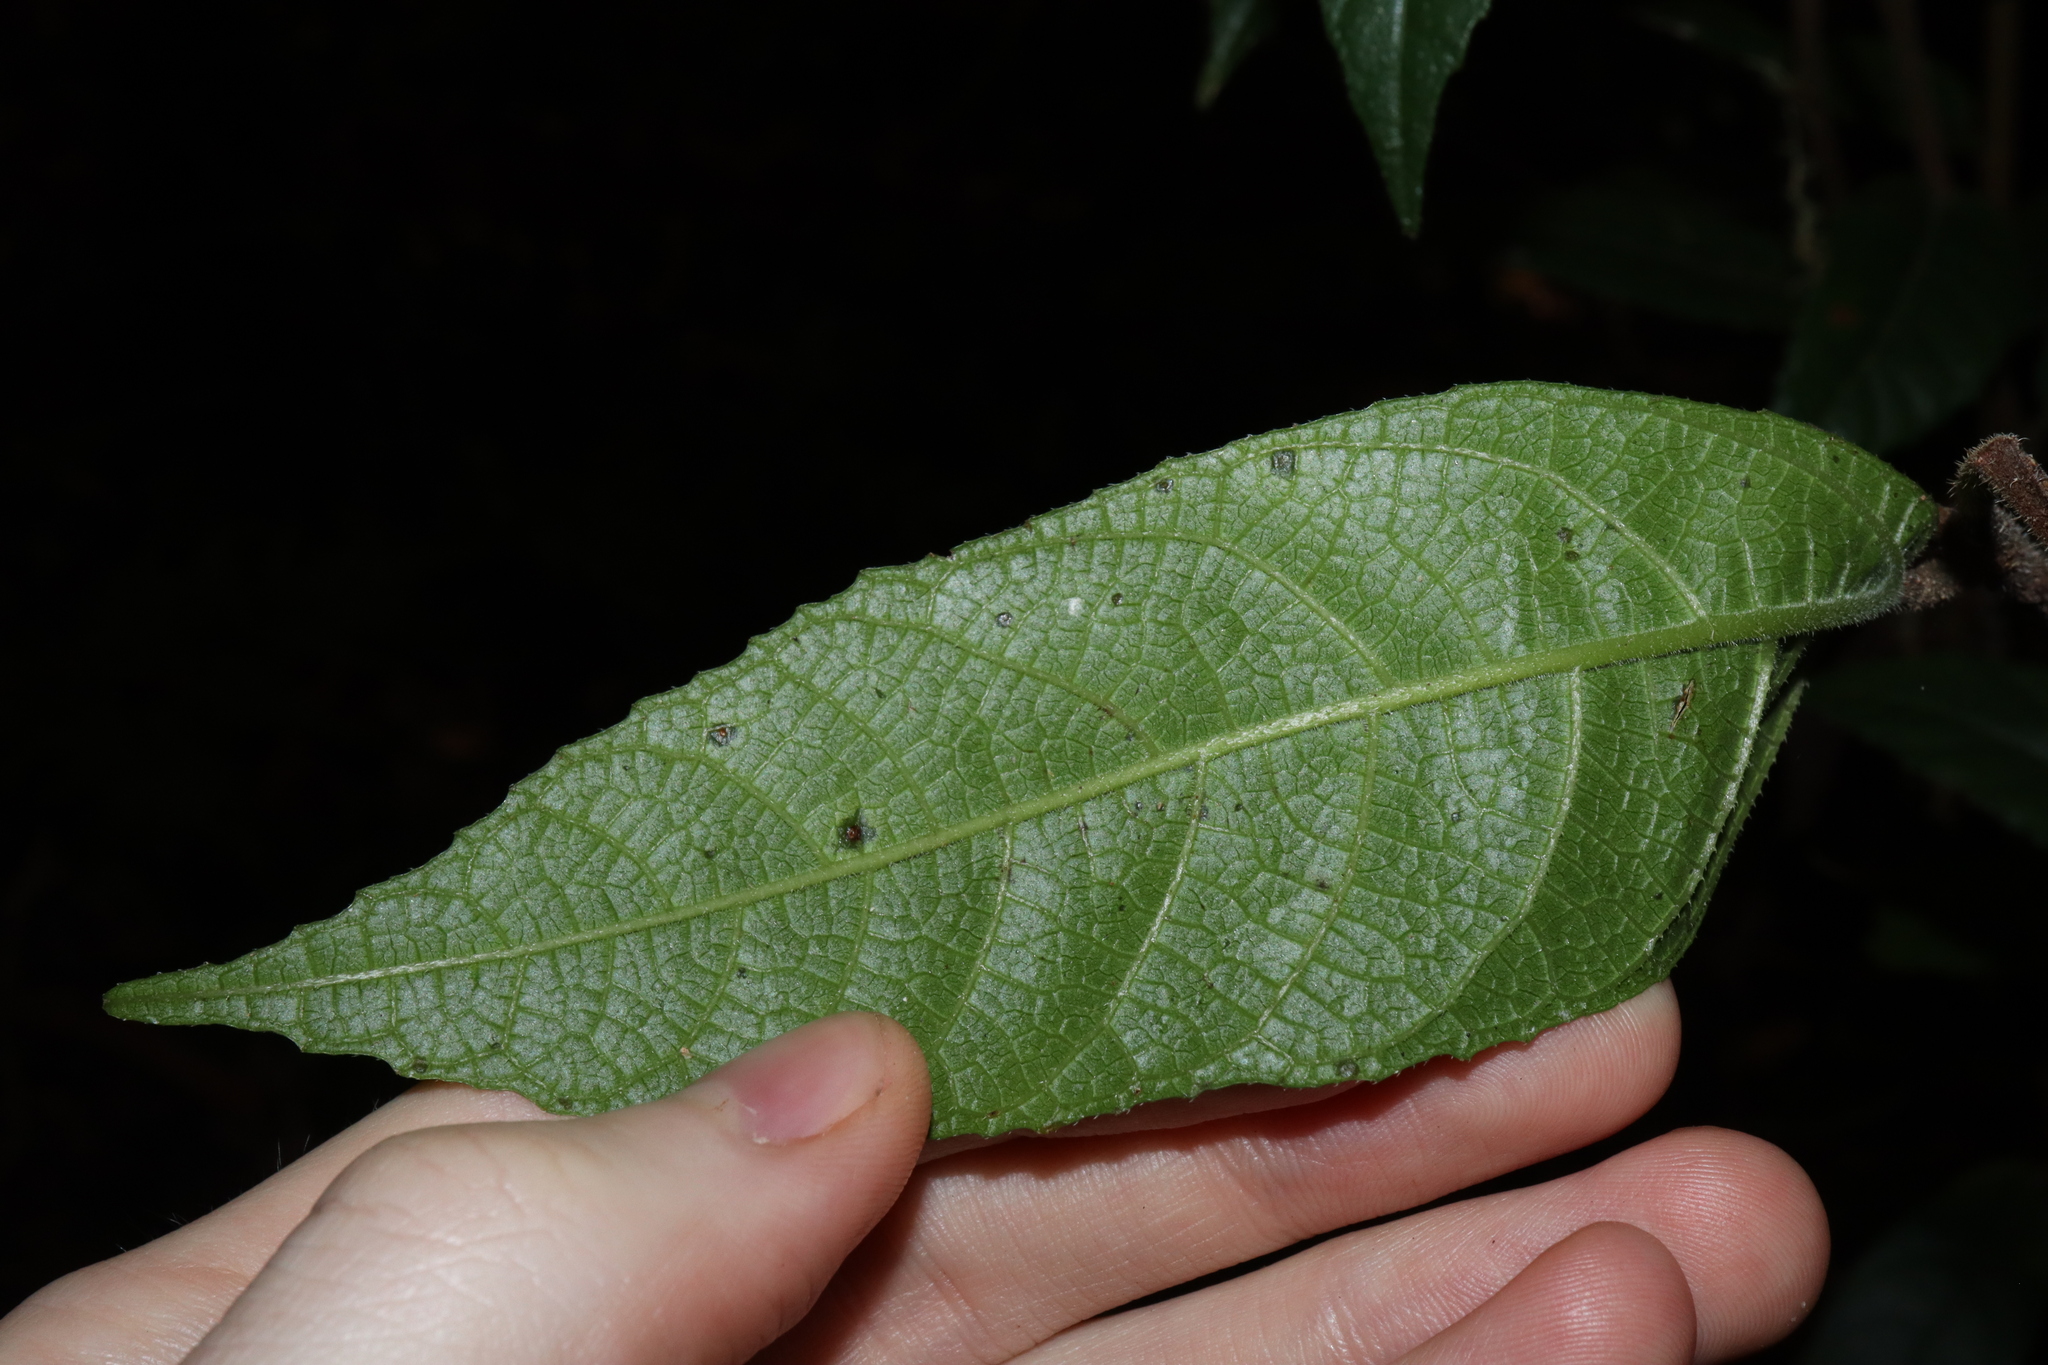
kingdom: Plantae
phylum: Tracheophyta
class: Magnoliopsida
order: Rosales
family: Moraceae
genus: Ficus
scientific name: Ficus coronata
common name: Creek sandpaper fig
